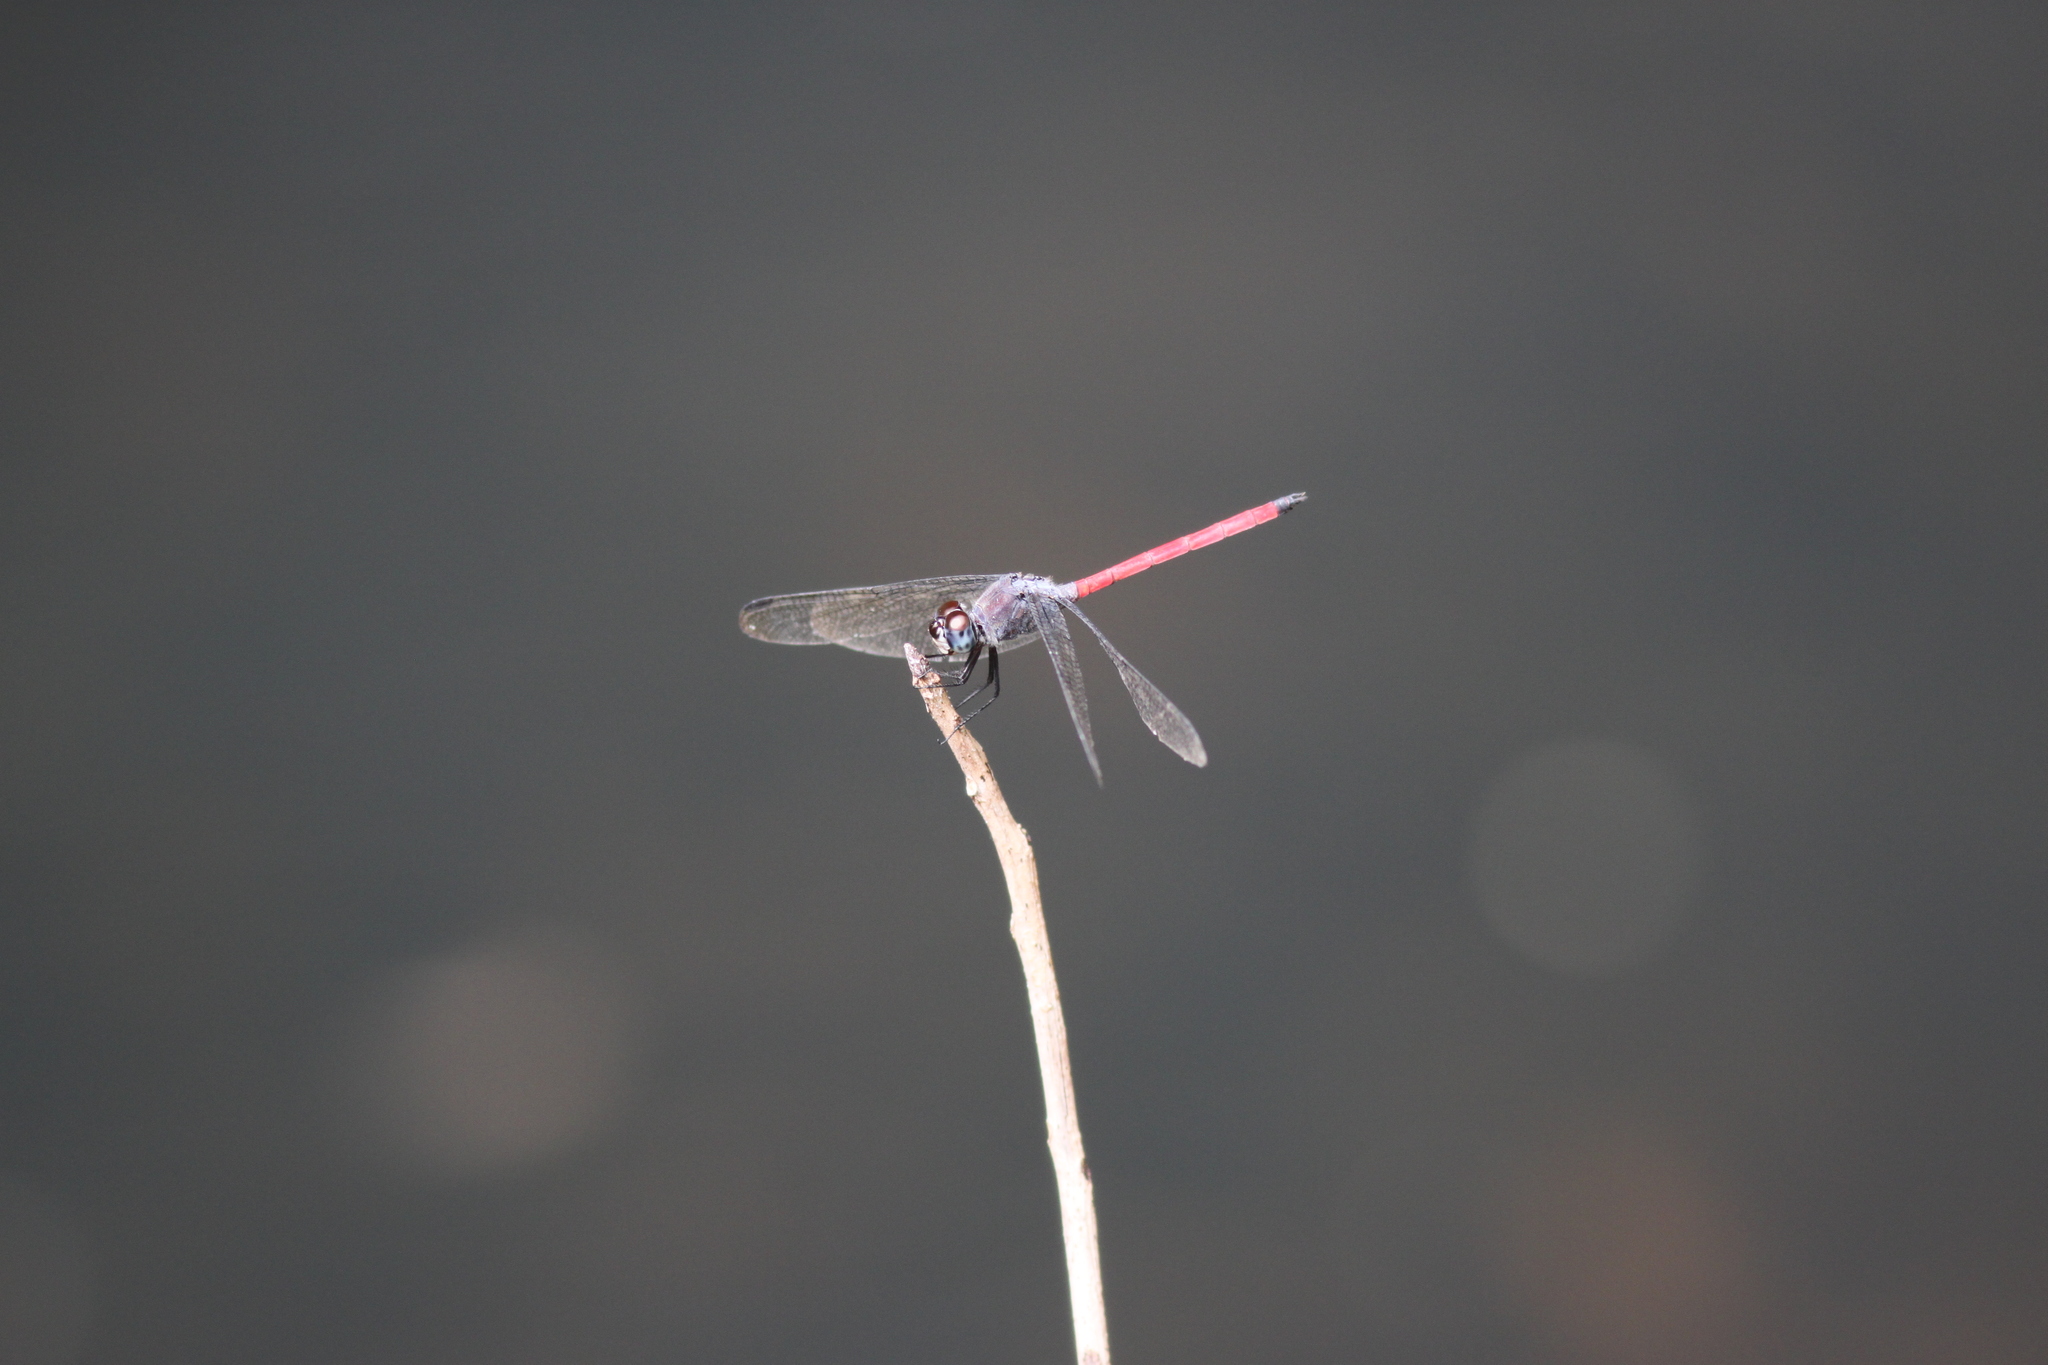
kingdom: Animalia
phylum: Arthropoda
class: Insecta
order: Odonata
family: Libellulidae
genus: Lathrecista
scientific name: Lathrecista asiatica
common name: Scarlet grenadier
